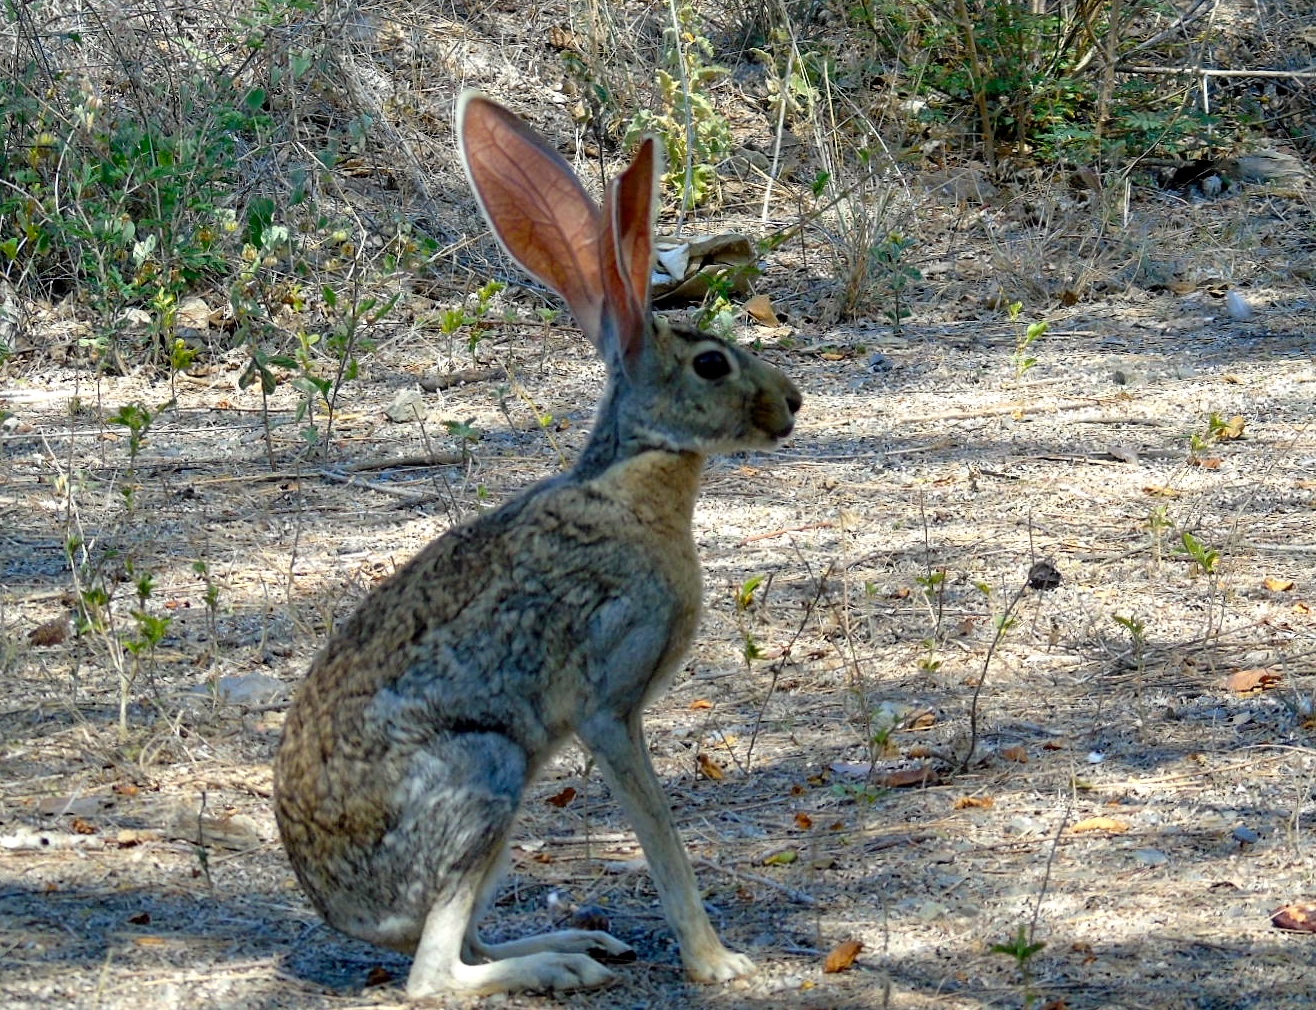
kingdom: Animalia
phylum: Chordata
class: Mammalia
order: Lagomorpha
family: Leporidae
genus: Lepus
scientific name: Lepus alleni
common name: Antelope jackrabbit
